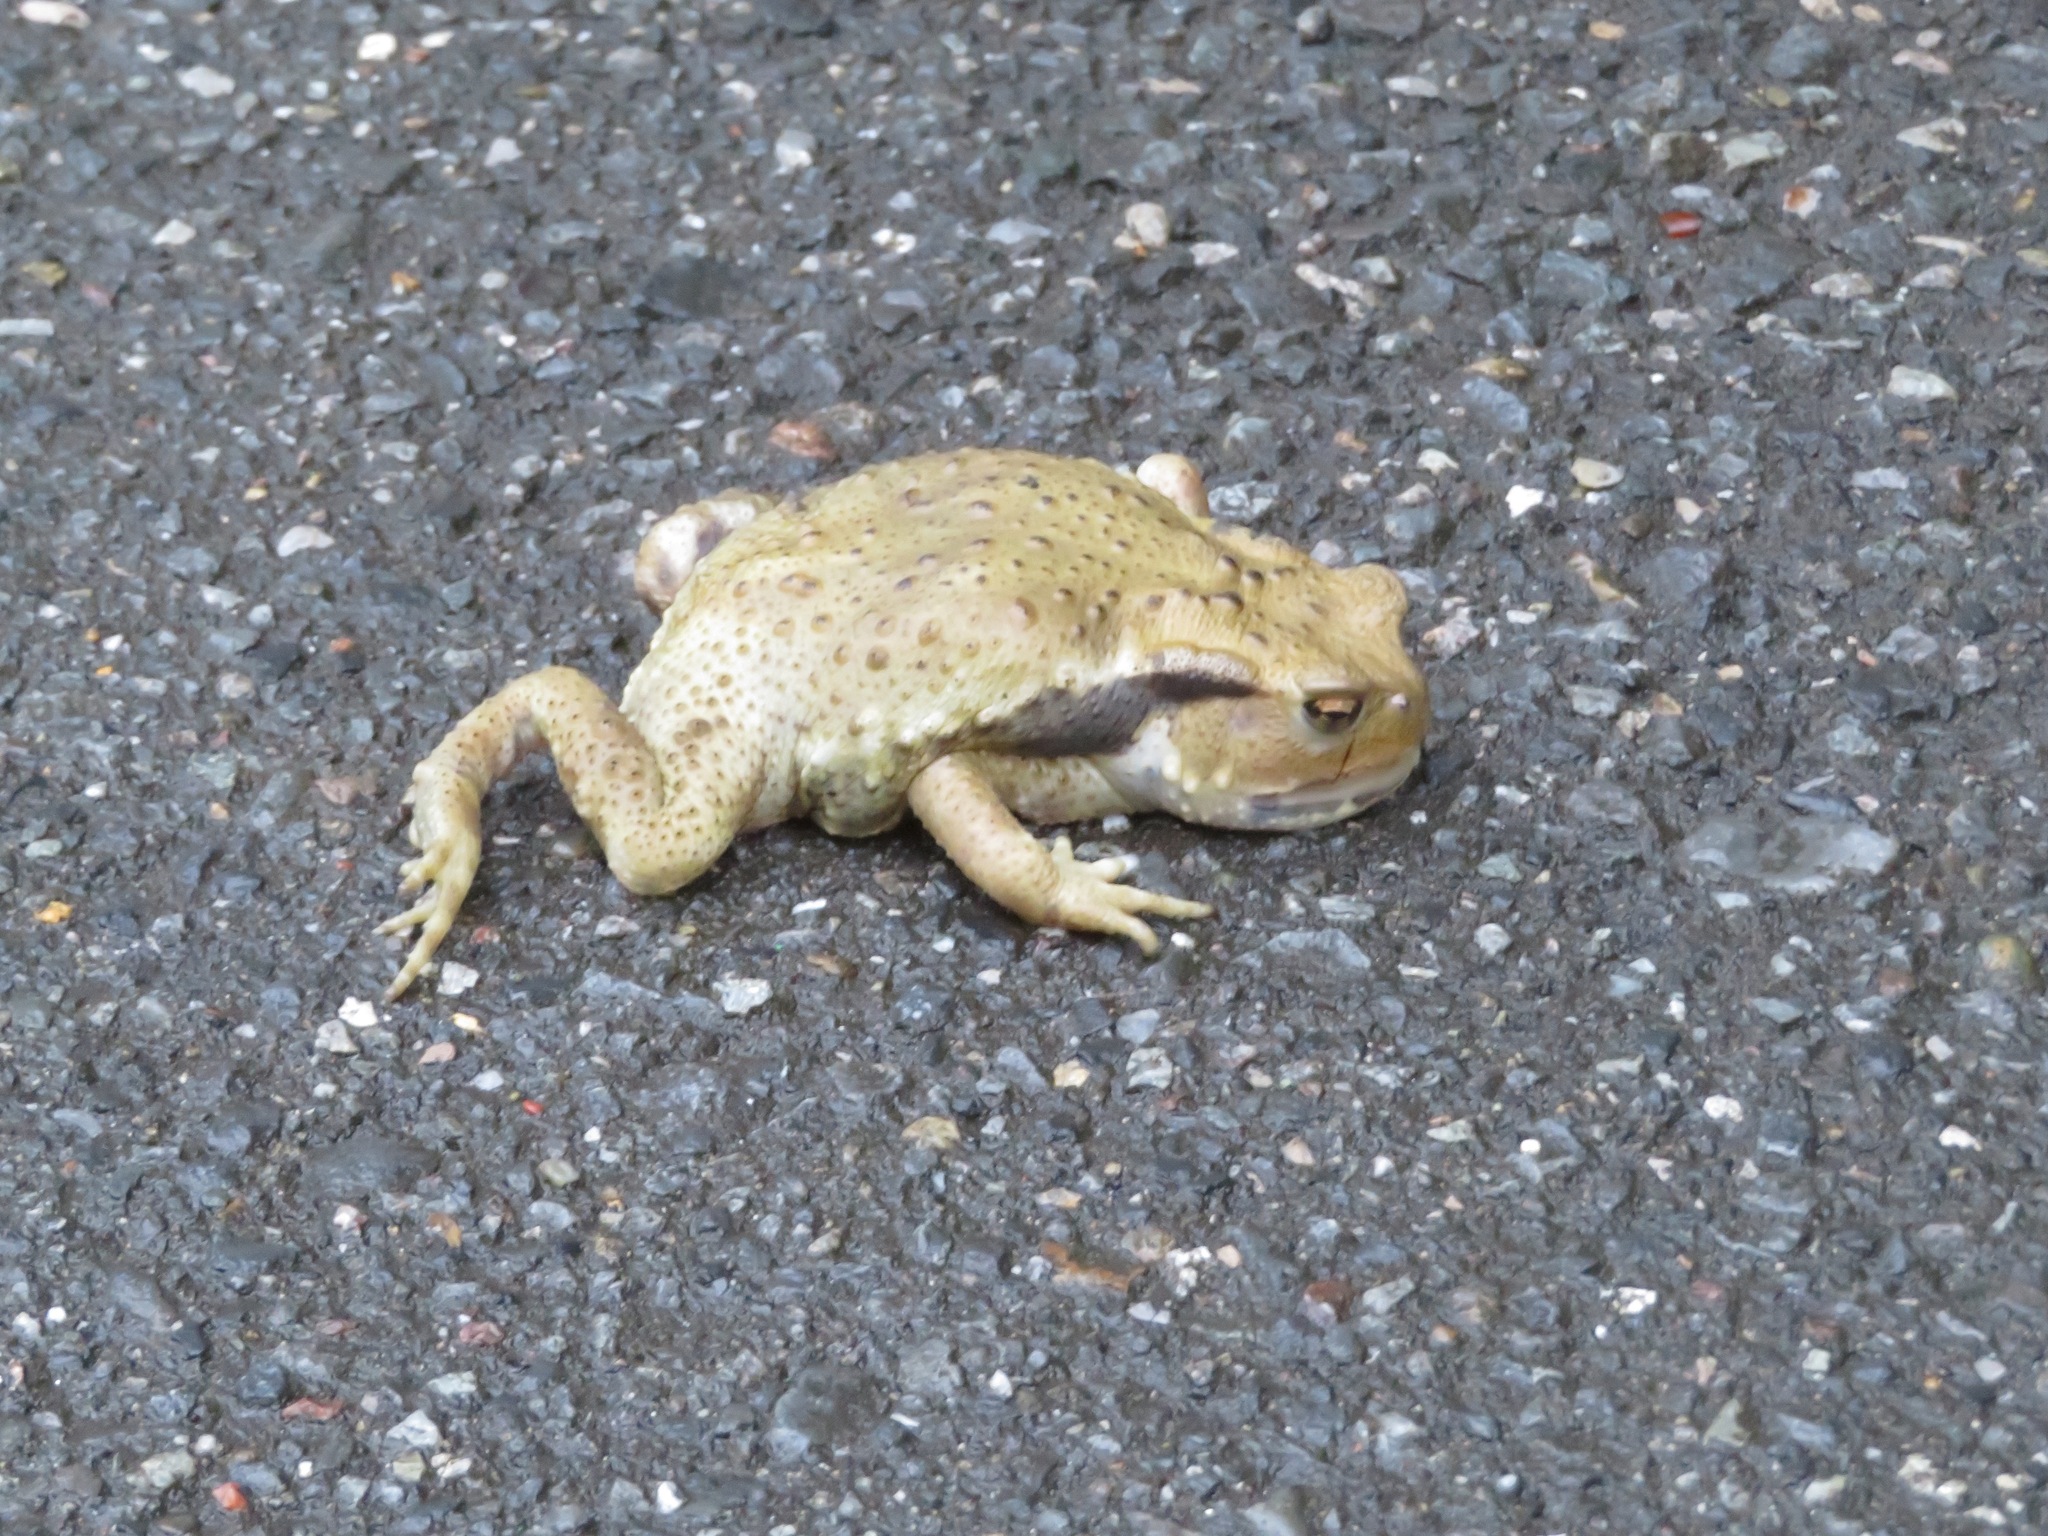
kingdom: Animalia
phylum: Chordata
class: Amphibia
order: Anura
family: Bufonidae
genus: Bufo
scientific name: Bufo japonicus
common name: Japanese common toad
